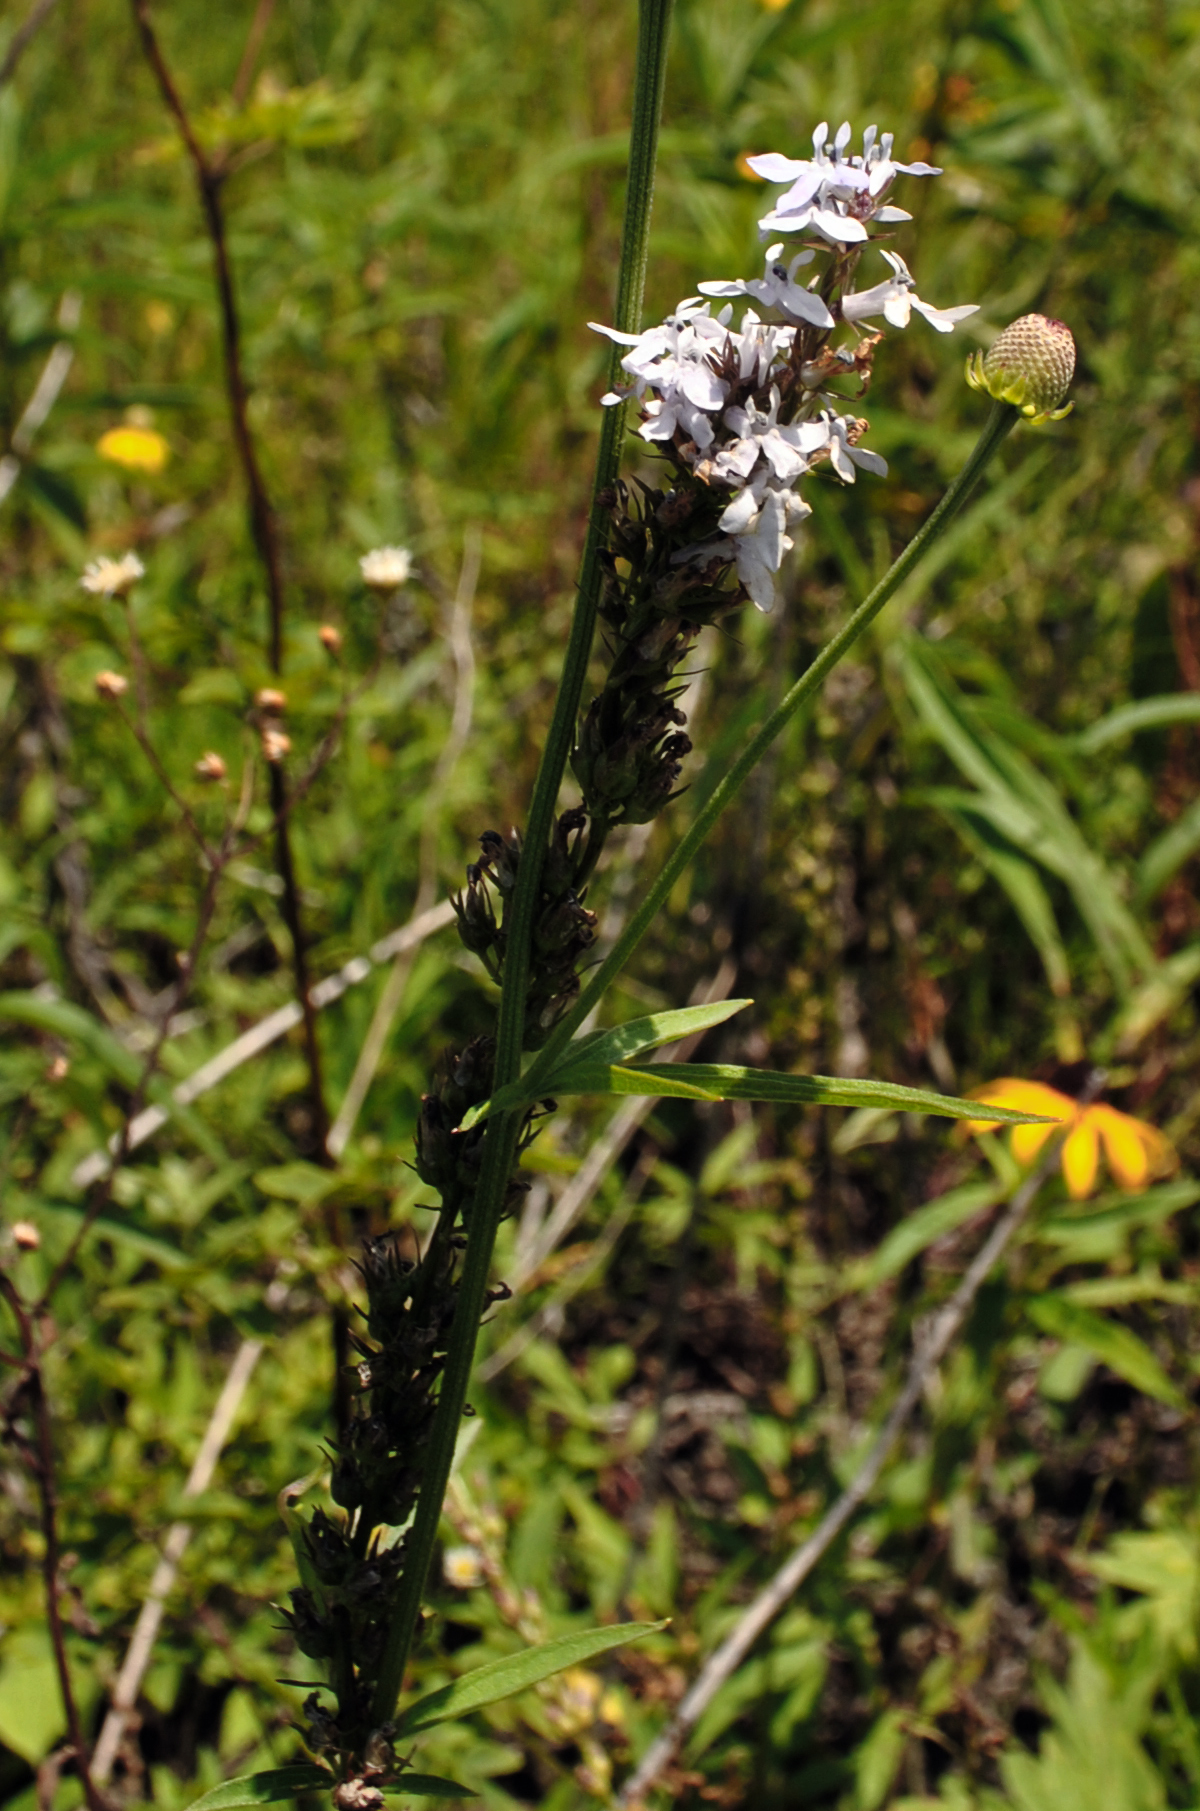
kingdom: Plantae
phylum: Tracheophyta
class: Magnoliopsida
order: Asterales
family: Campanulaceae
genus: Lobelia
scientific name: Lobelia spicata
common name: Pale-spike lobelia
